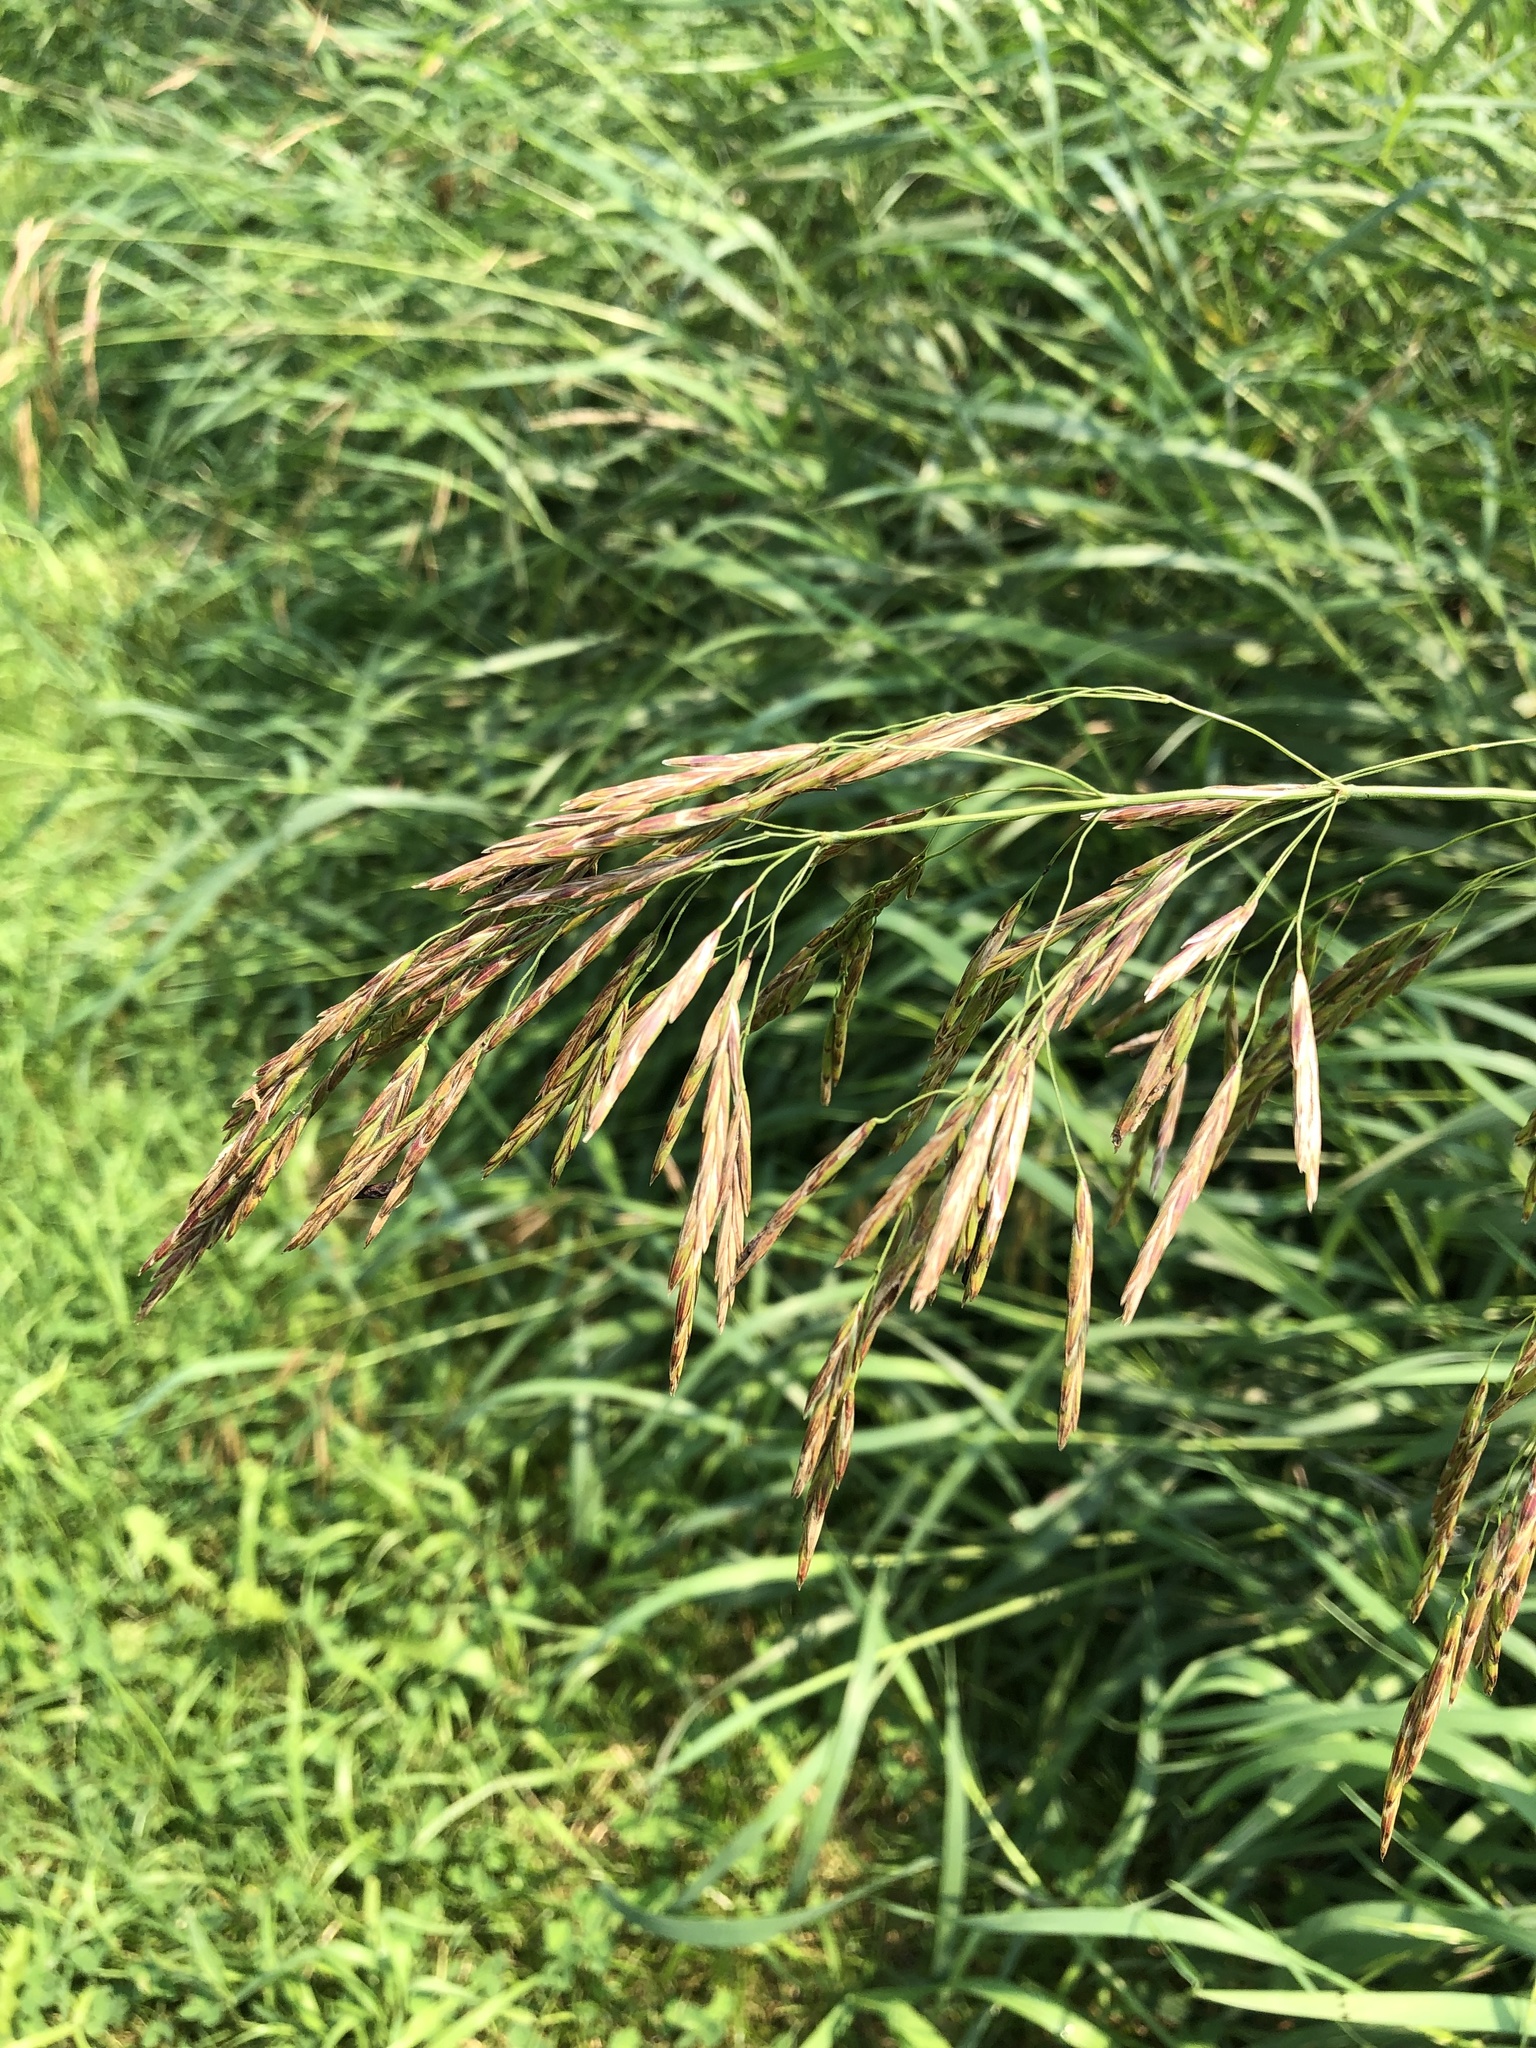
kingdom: Plantae
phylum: Tracheophyta
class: Liliopsida
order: Poales
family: Poaceae
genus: Bromus
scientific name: Bromus inermis
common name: Smooth brome
